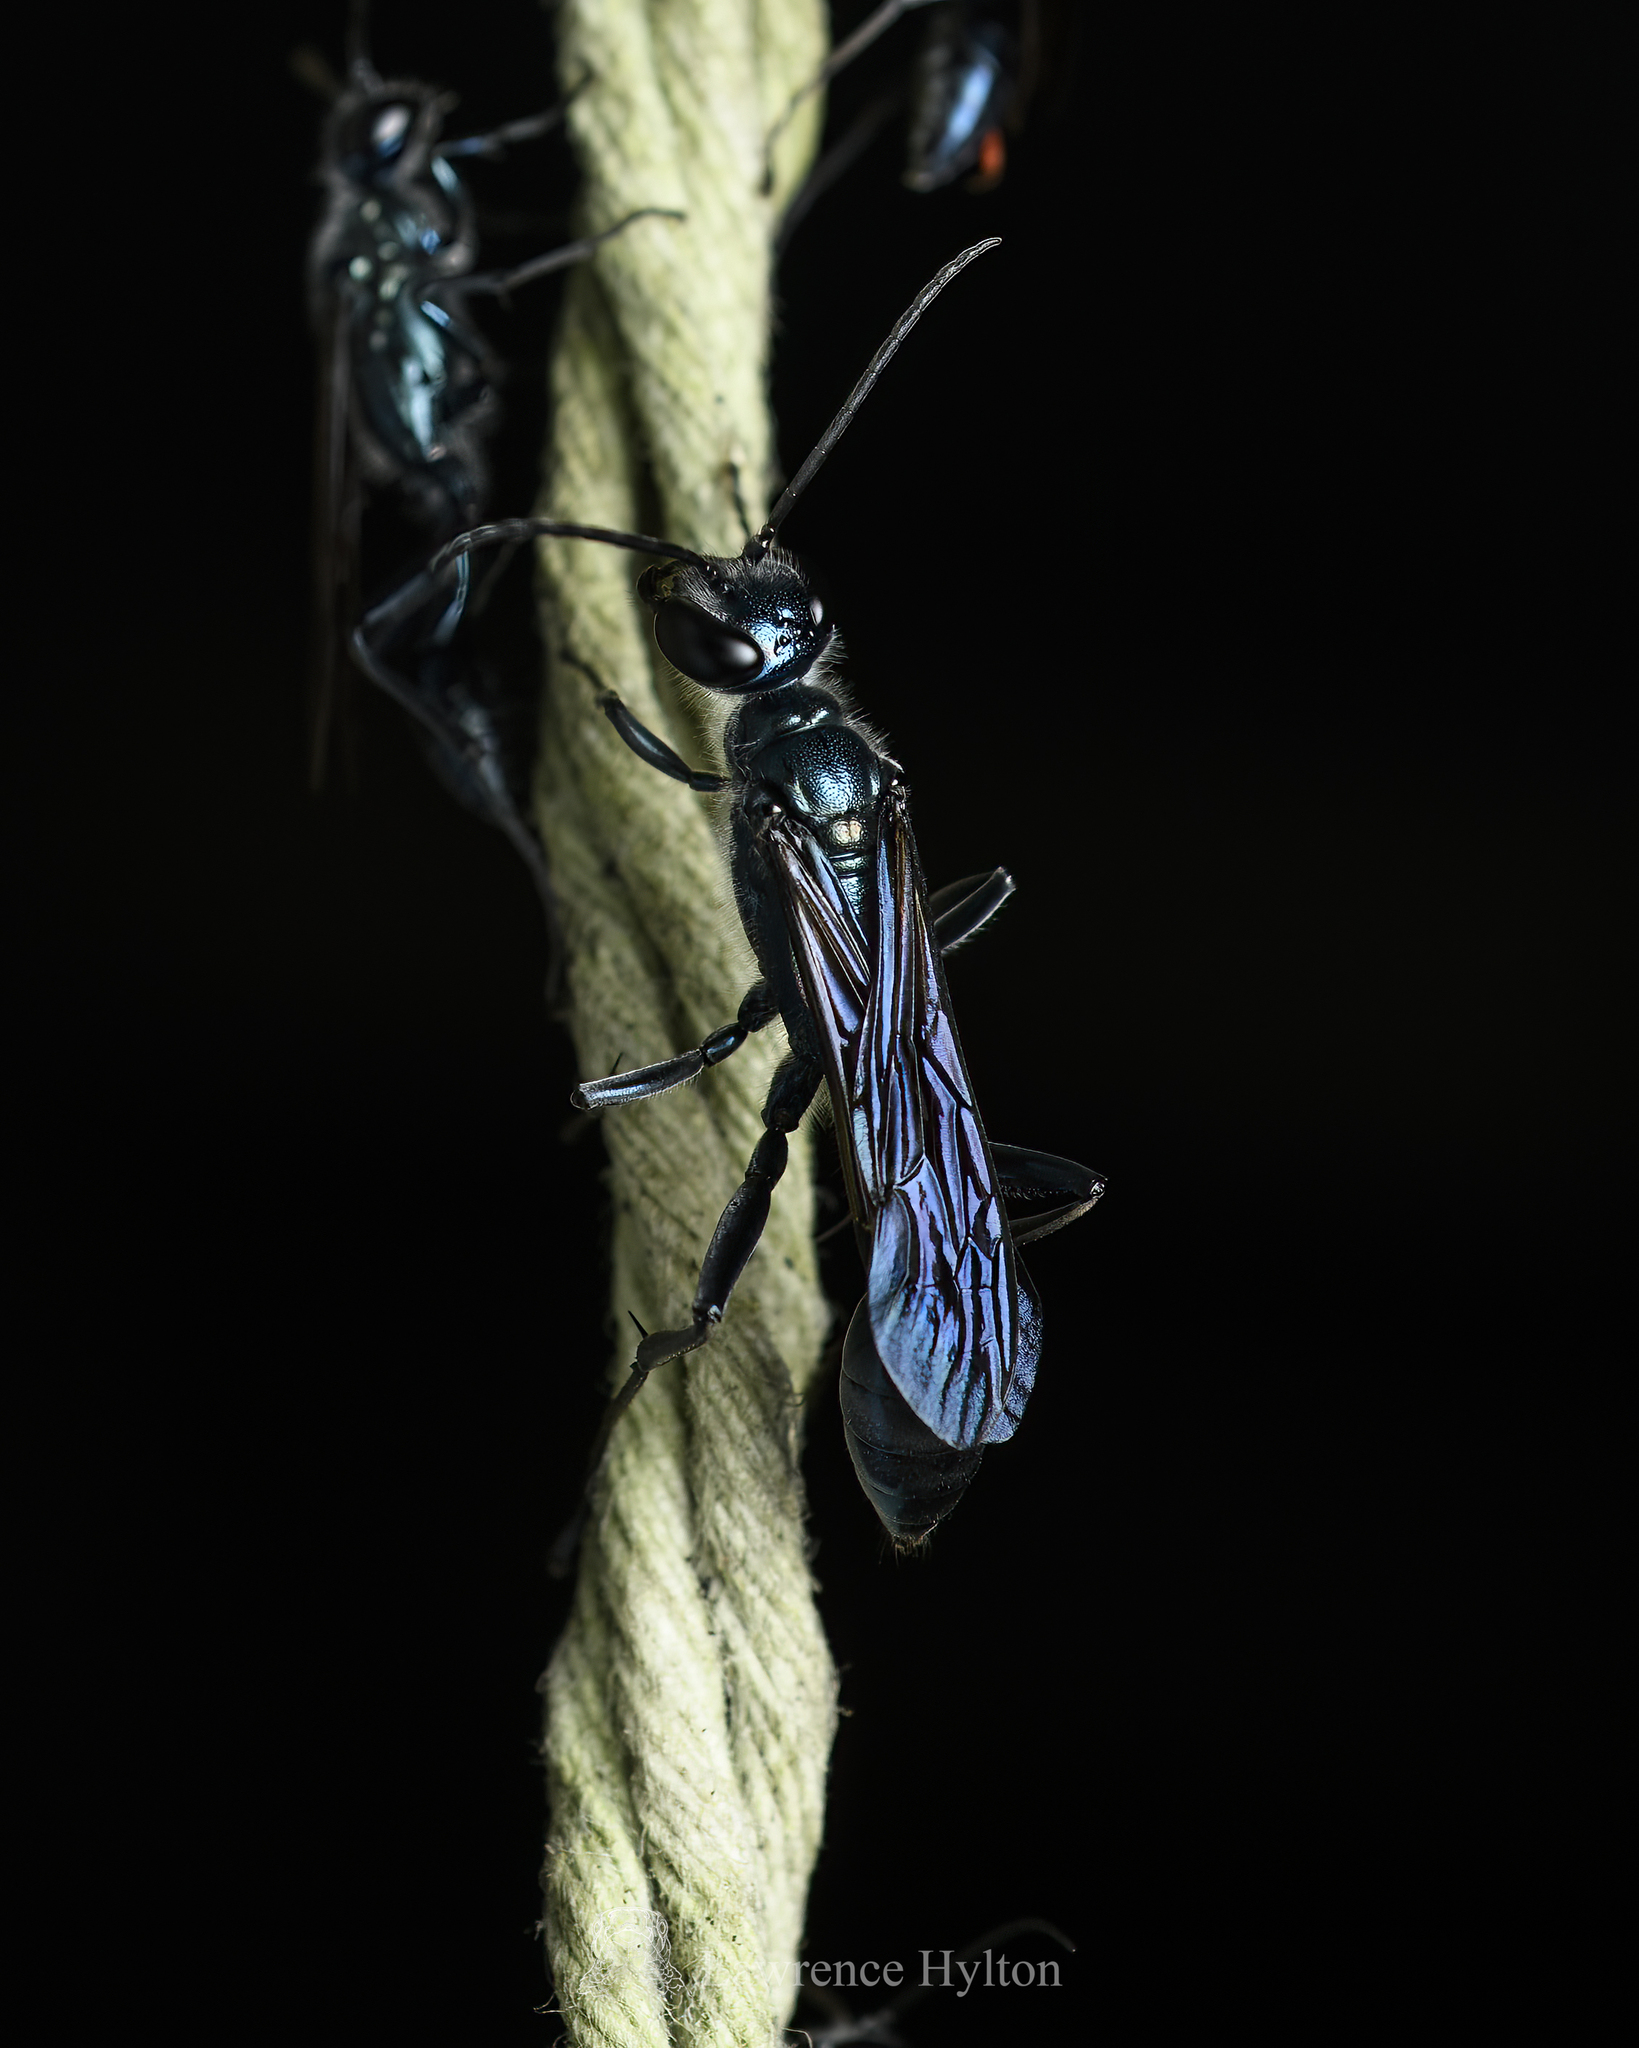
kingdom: Animalia
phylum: Arthropoda
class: Insecta
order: Hymenoptera
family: Sphecidae
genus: Chalybion
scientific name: Chalybion japonicum
